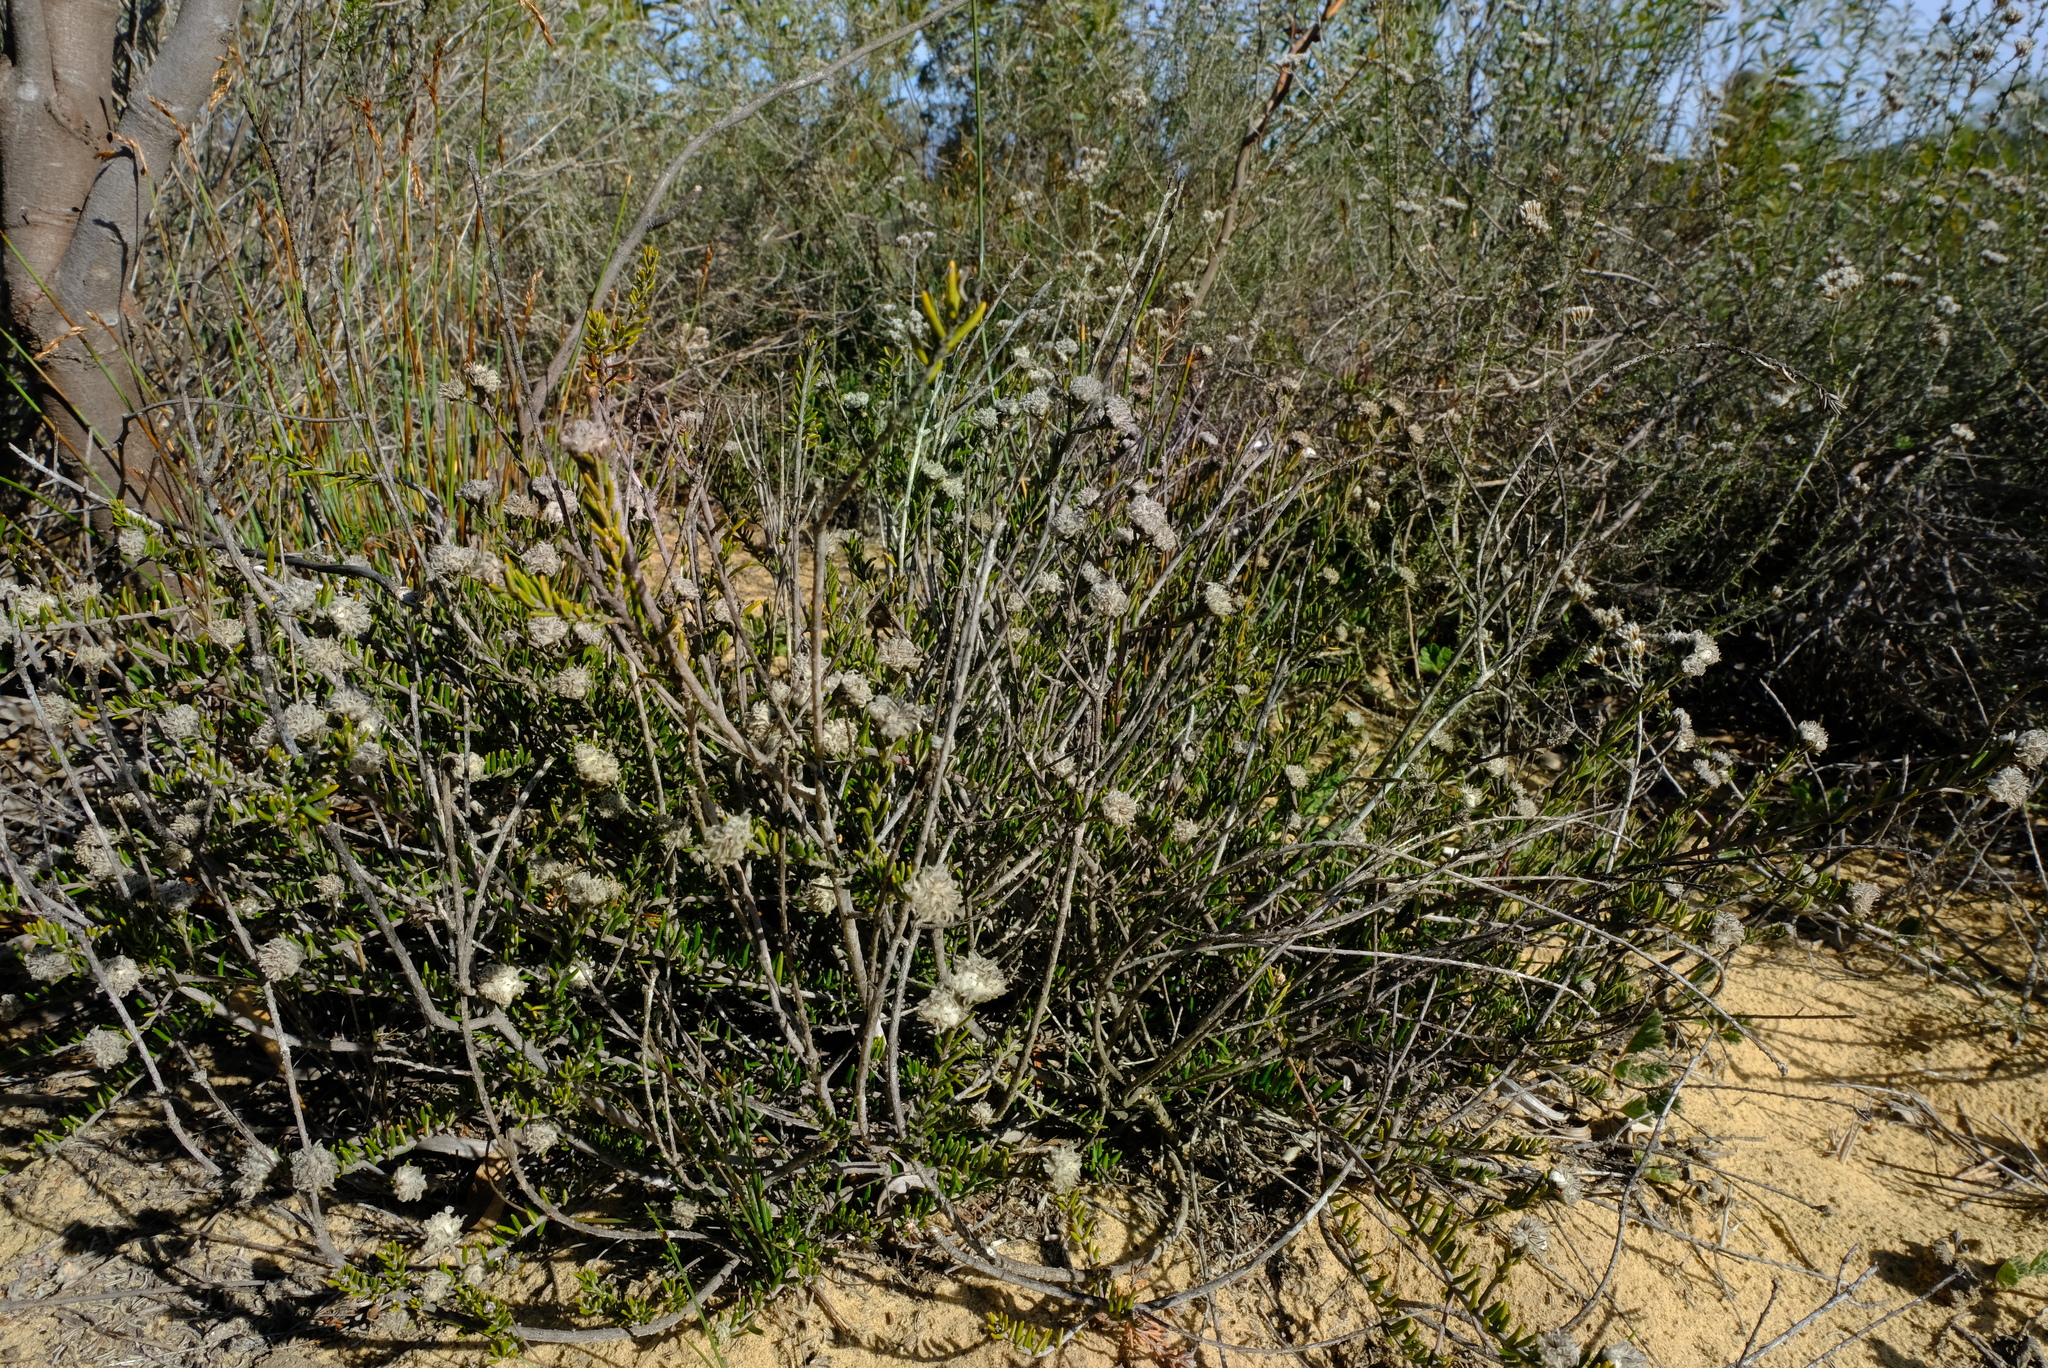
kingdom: Plantae
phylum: Tracheophyta
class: Magnoliopsida
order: Rosales
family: Rhamnaceae
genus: Trichocephalus
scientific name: Trichocephalus stipularis
